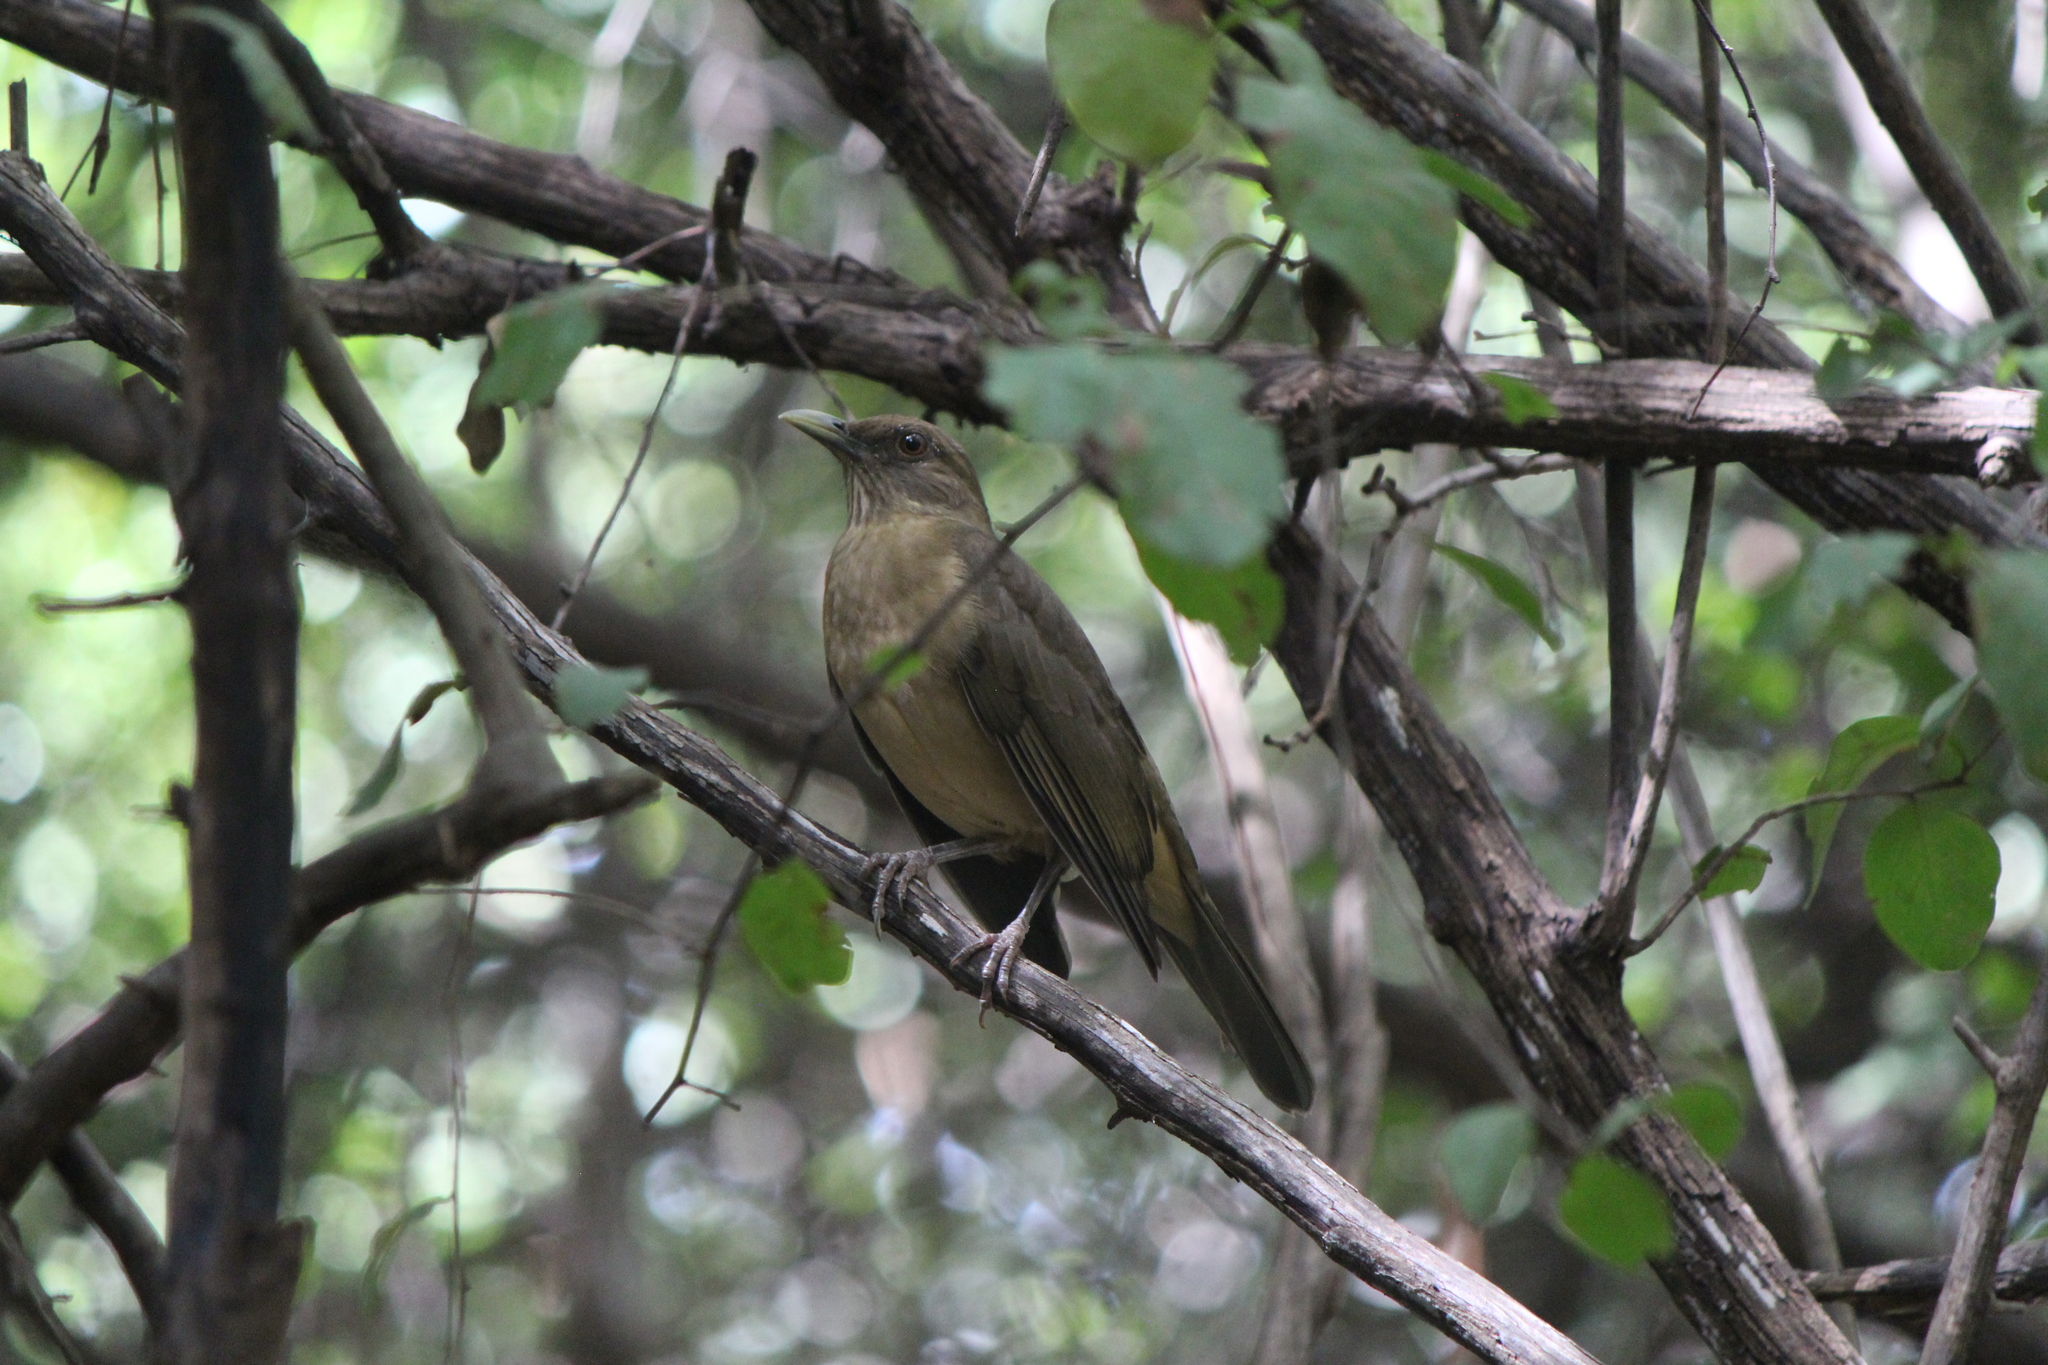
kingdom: Animalia
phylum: Chordata
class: Aves
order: Passeriformes
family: Turdidae
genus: Turdus
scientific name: Turdus grayi
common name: Clay-colored thrush
